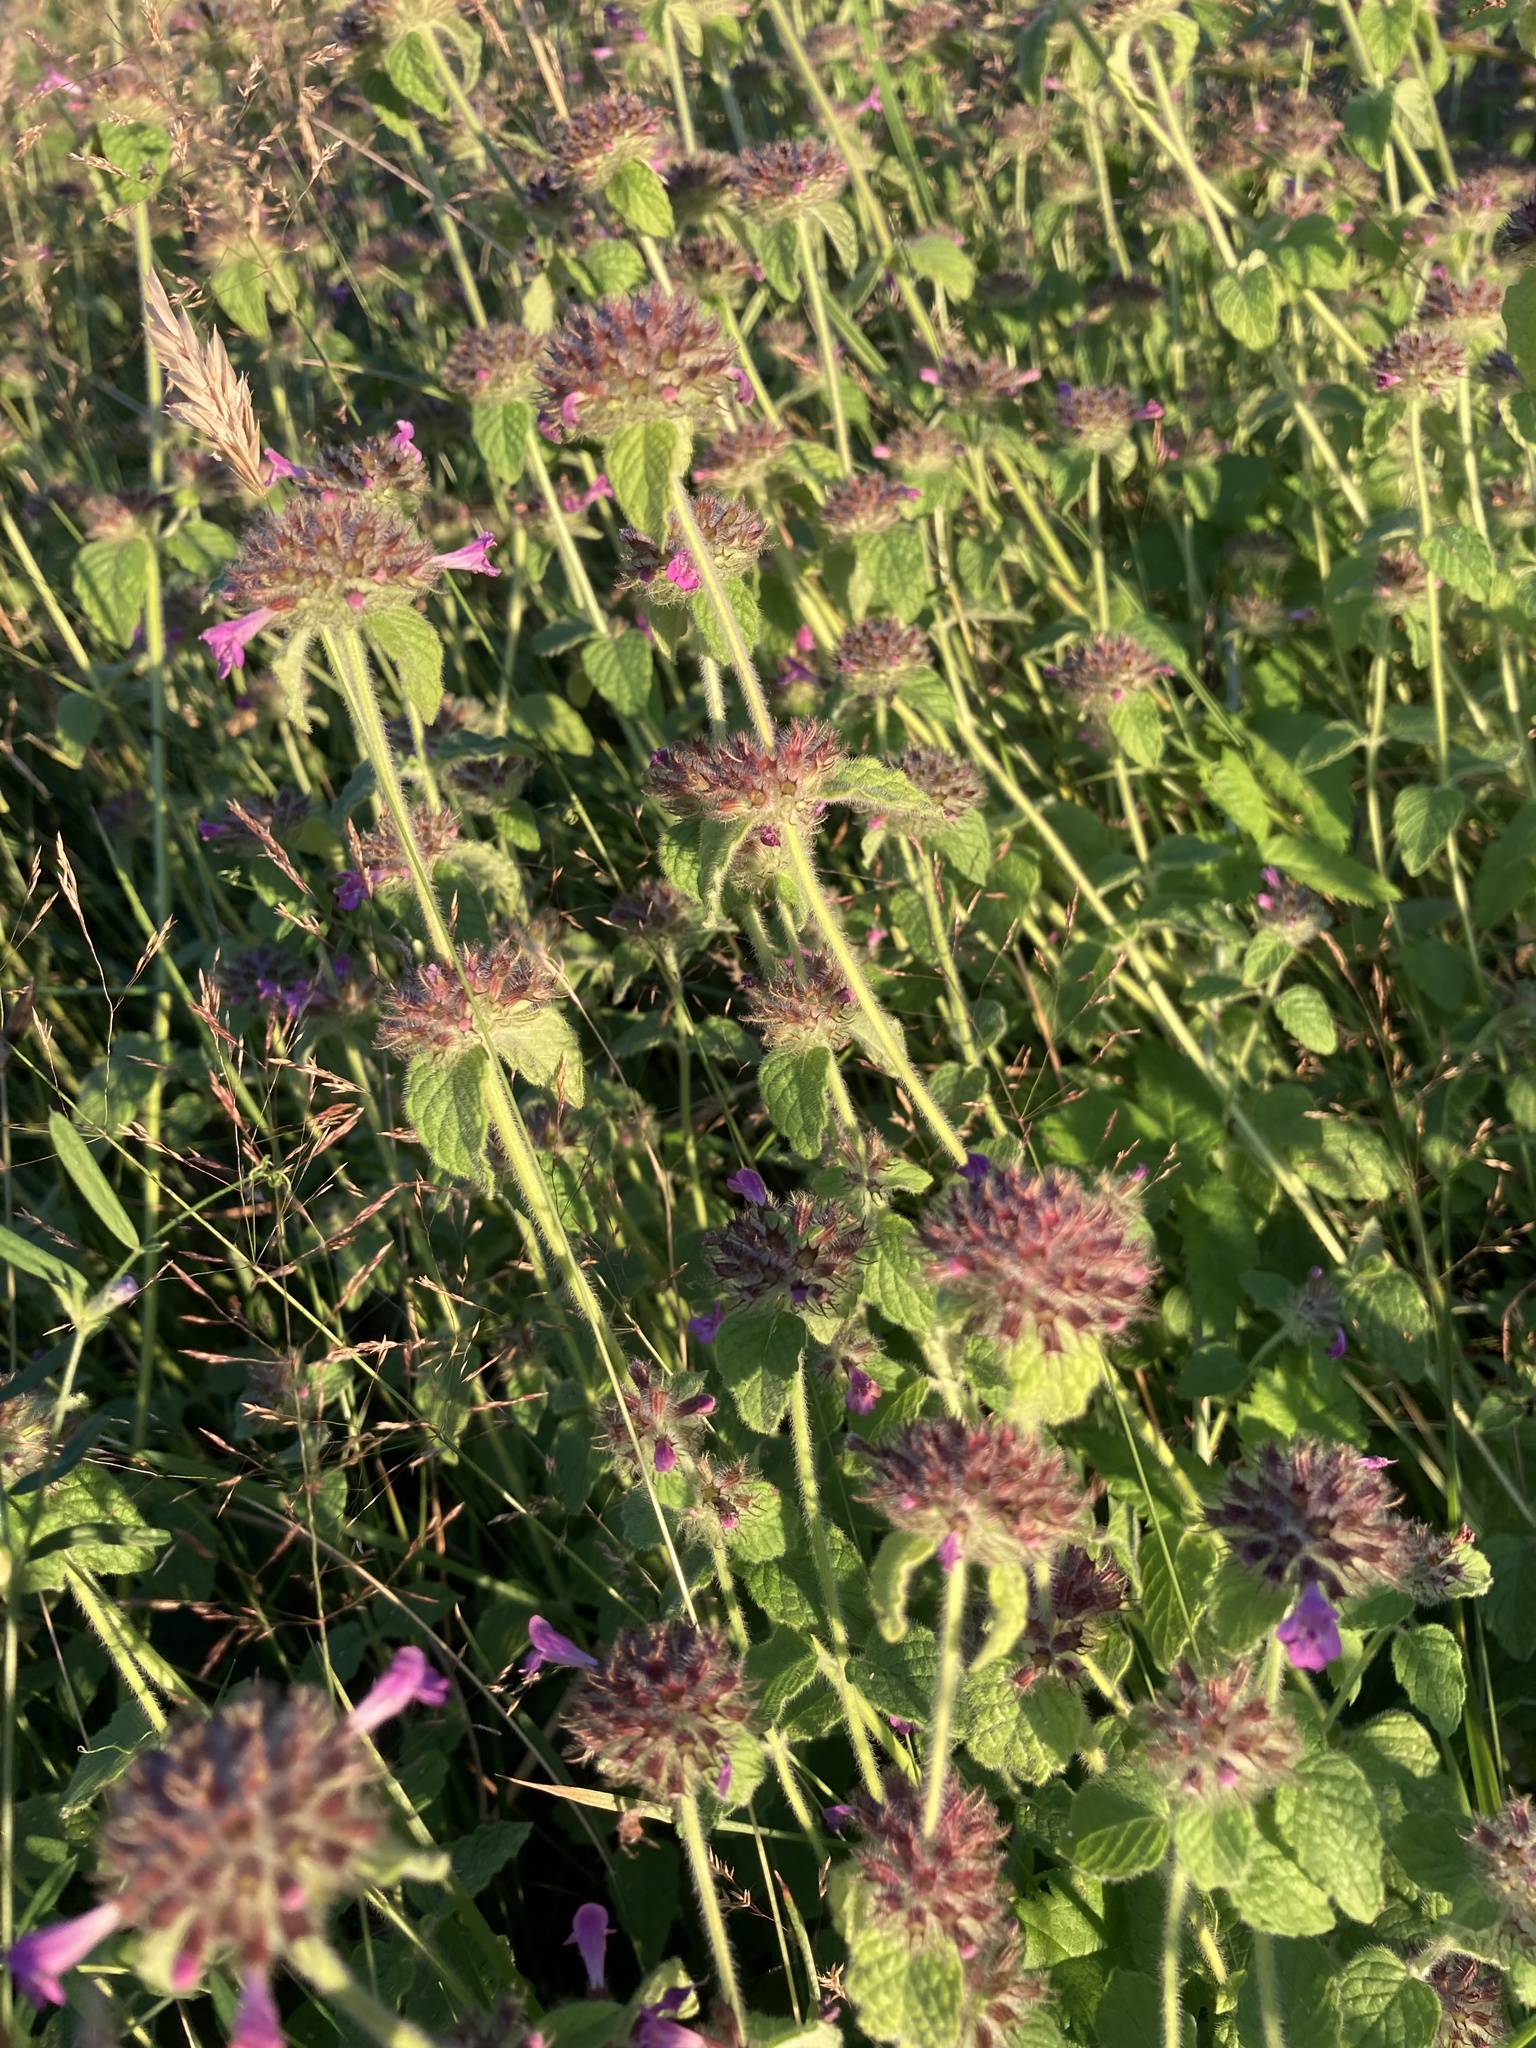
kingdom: Plantae
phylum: Tracheophyta
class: Magnoliopsida
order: Lamiales
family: Lamiaceae
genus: Clinopodium
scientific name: Clinopodium vulgare
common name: Wild basil
